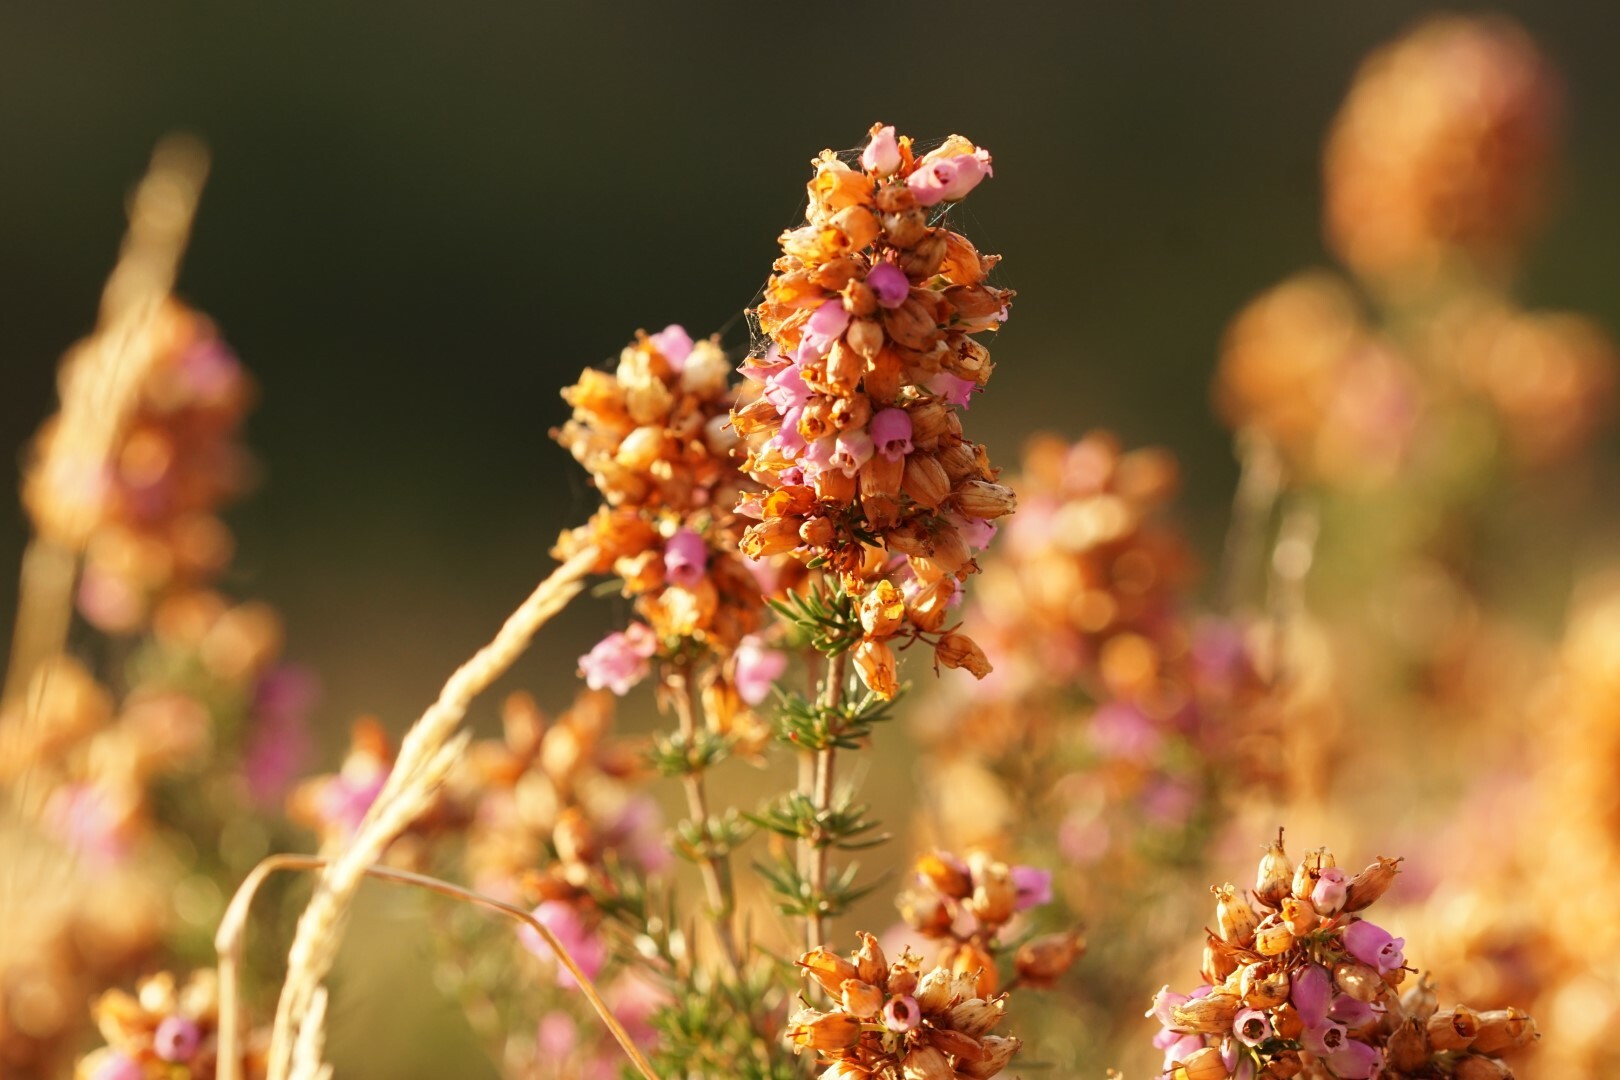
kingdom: Plantae
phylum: Tracheophyta
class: Magnoliopsida
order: Ericales
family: Ericaceae
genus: Erica
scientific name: Erica cinerea
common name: Bell heather
